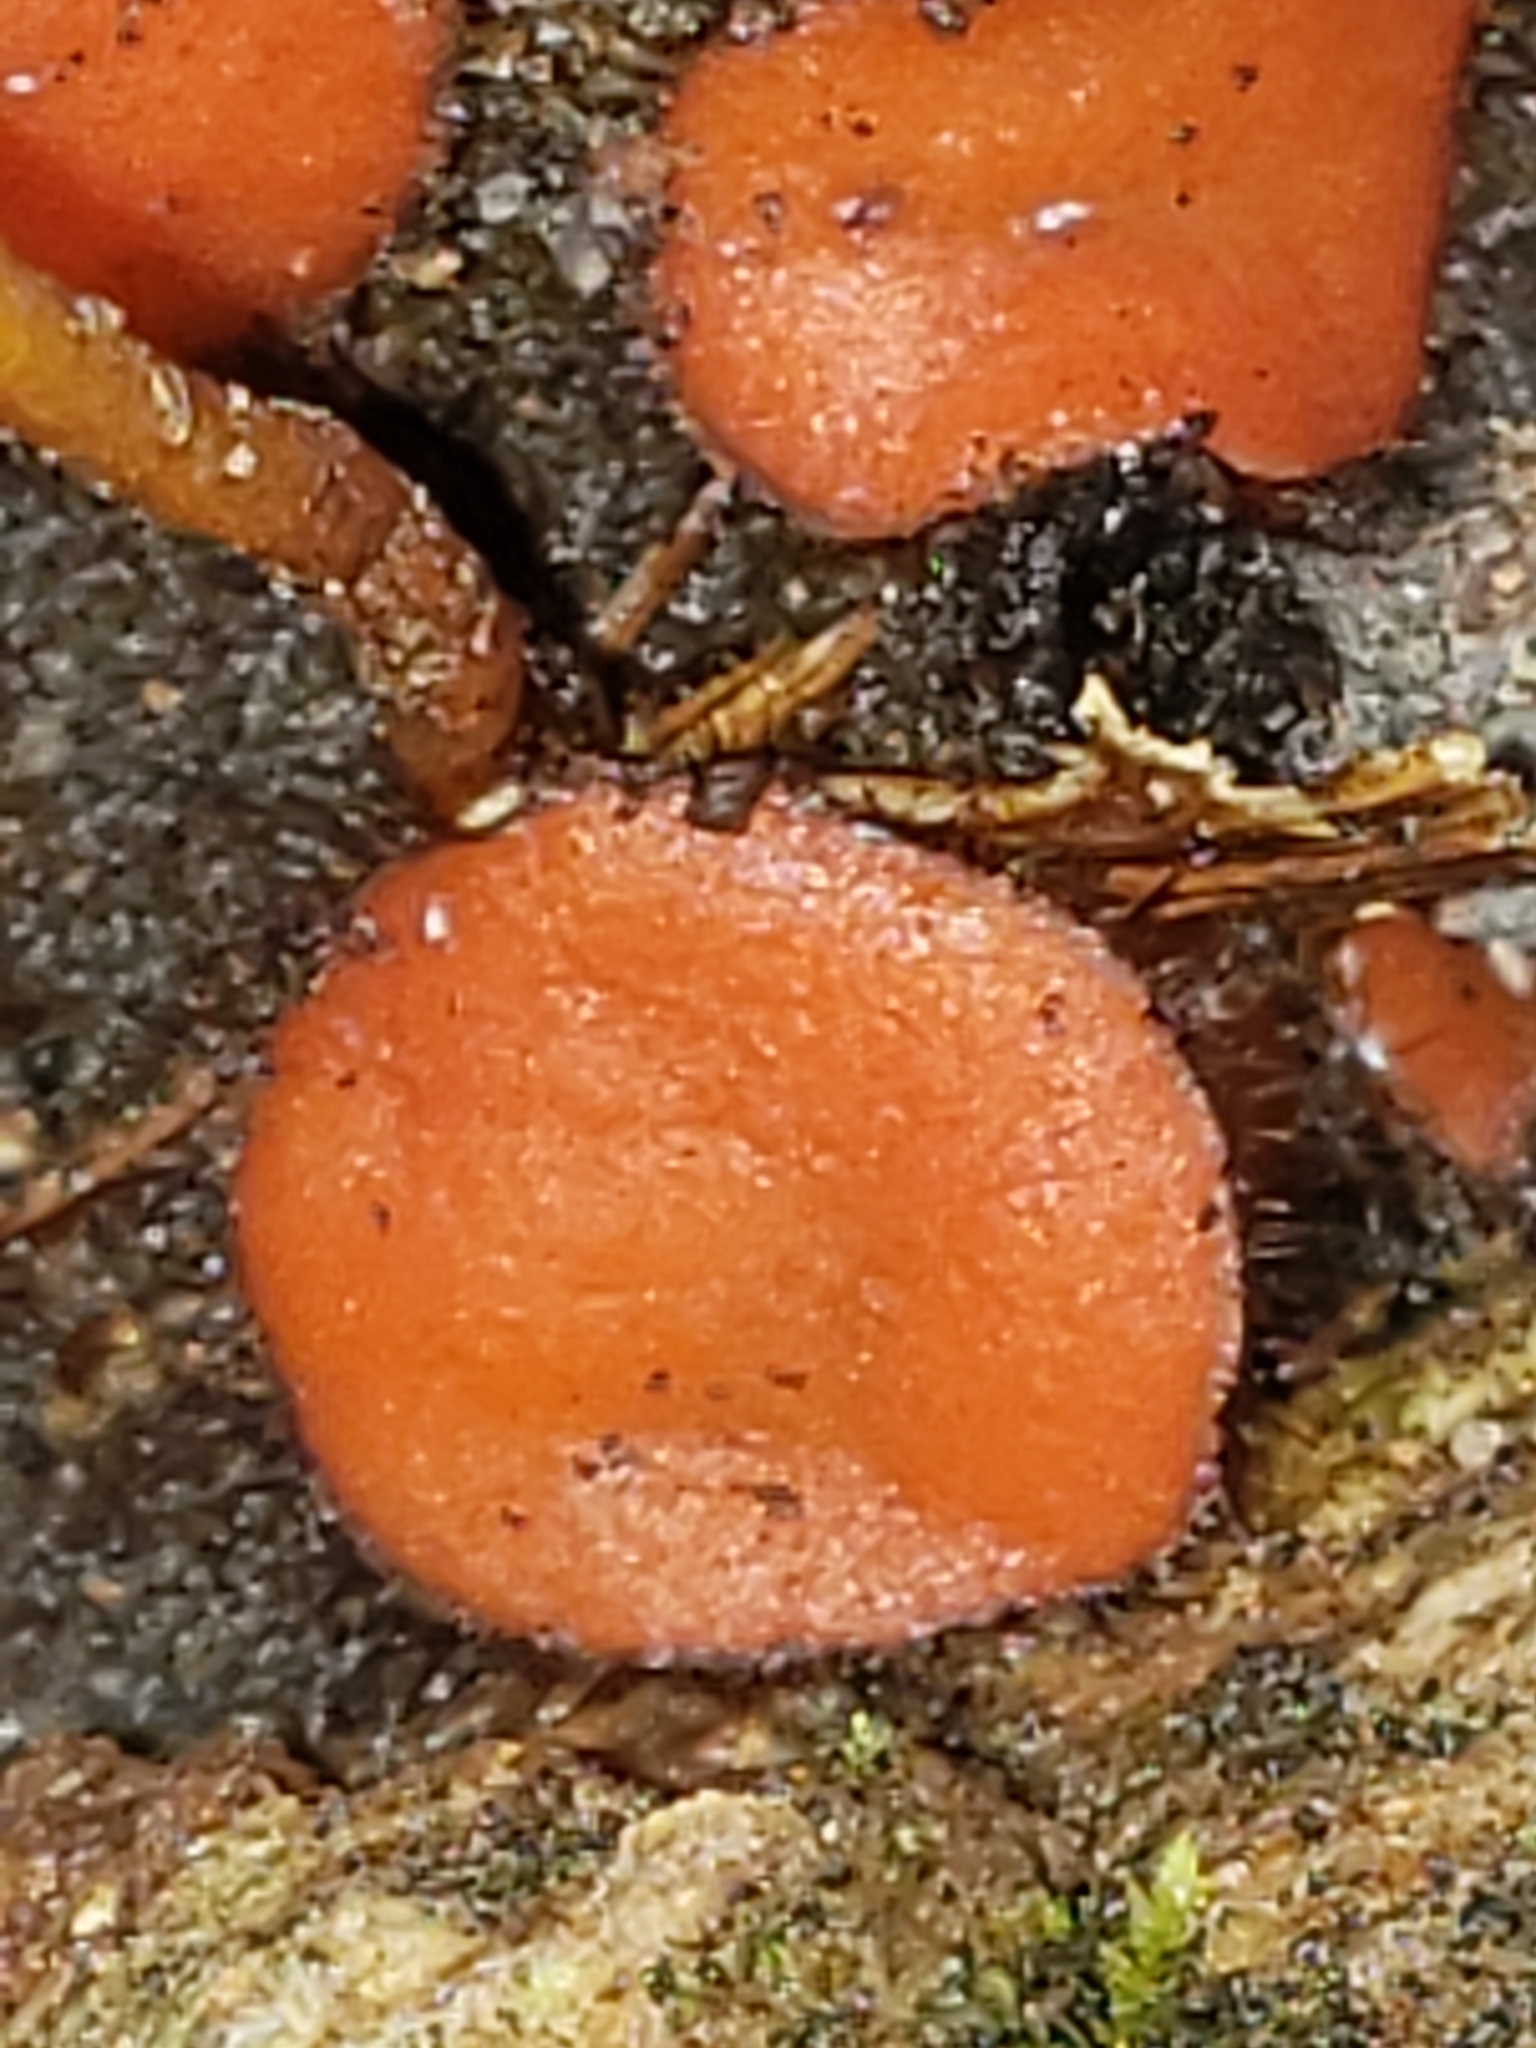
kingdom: Fungi
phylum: Ascomycota
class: Pezizomycetes
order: Pezizales
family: Pyronemataceae
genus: Scutellinia
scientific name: Scutellinia
